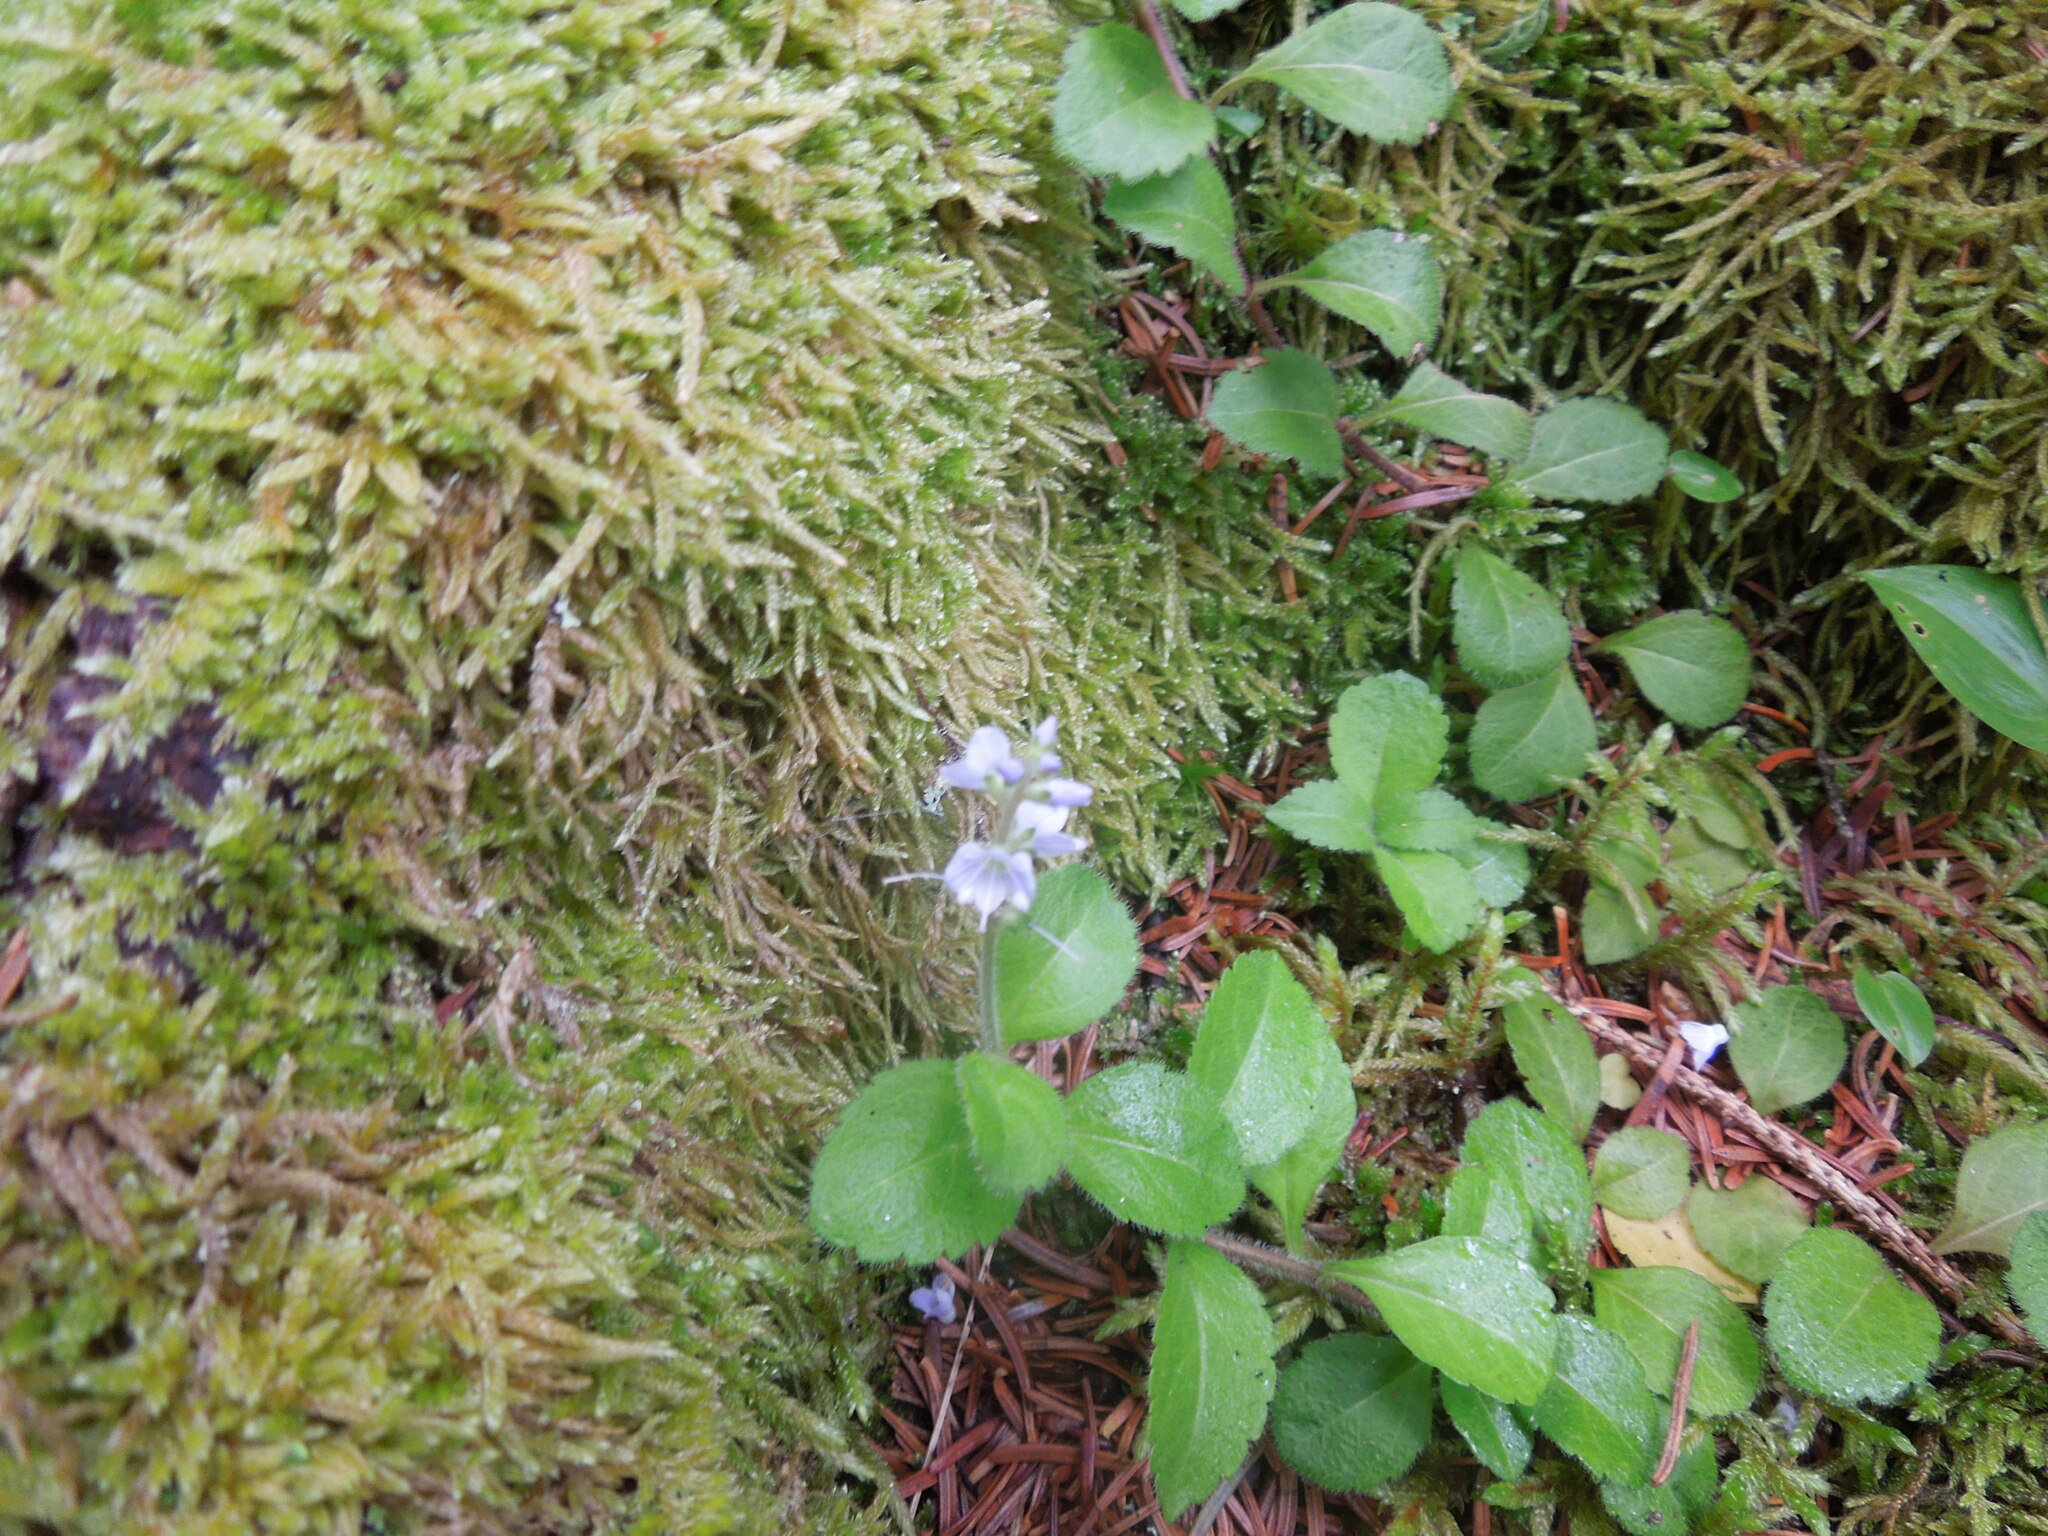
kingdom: Plantae
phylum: Tracheophyta
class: Magnoliopsida
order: Lamiales
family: Plantaginaceae
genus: Veronica
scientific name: Veronica officinalis
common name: Common speedwell
